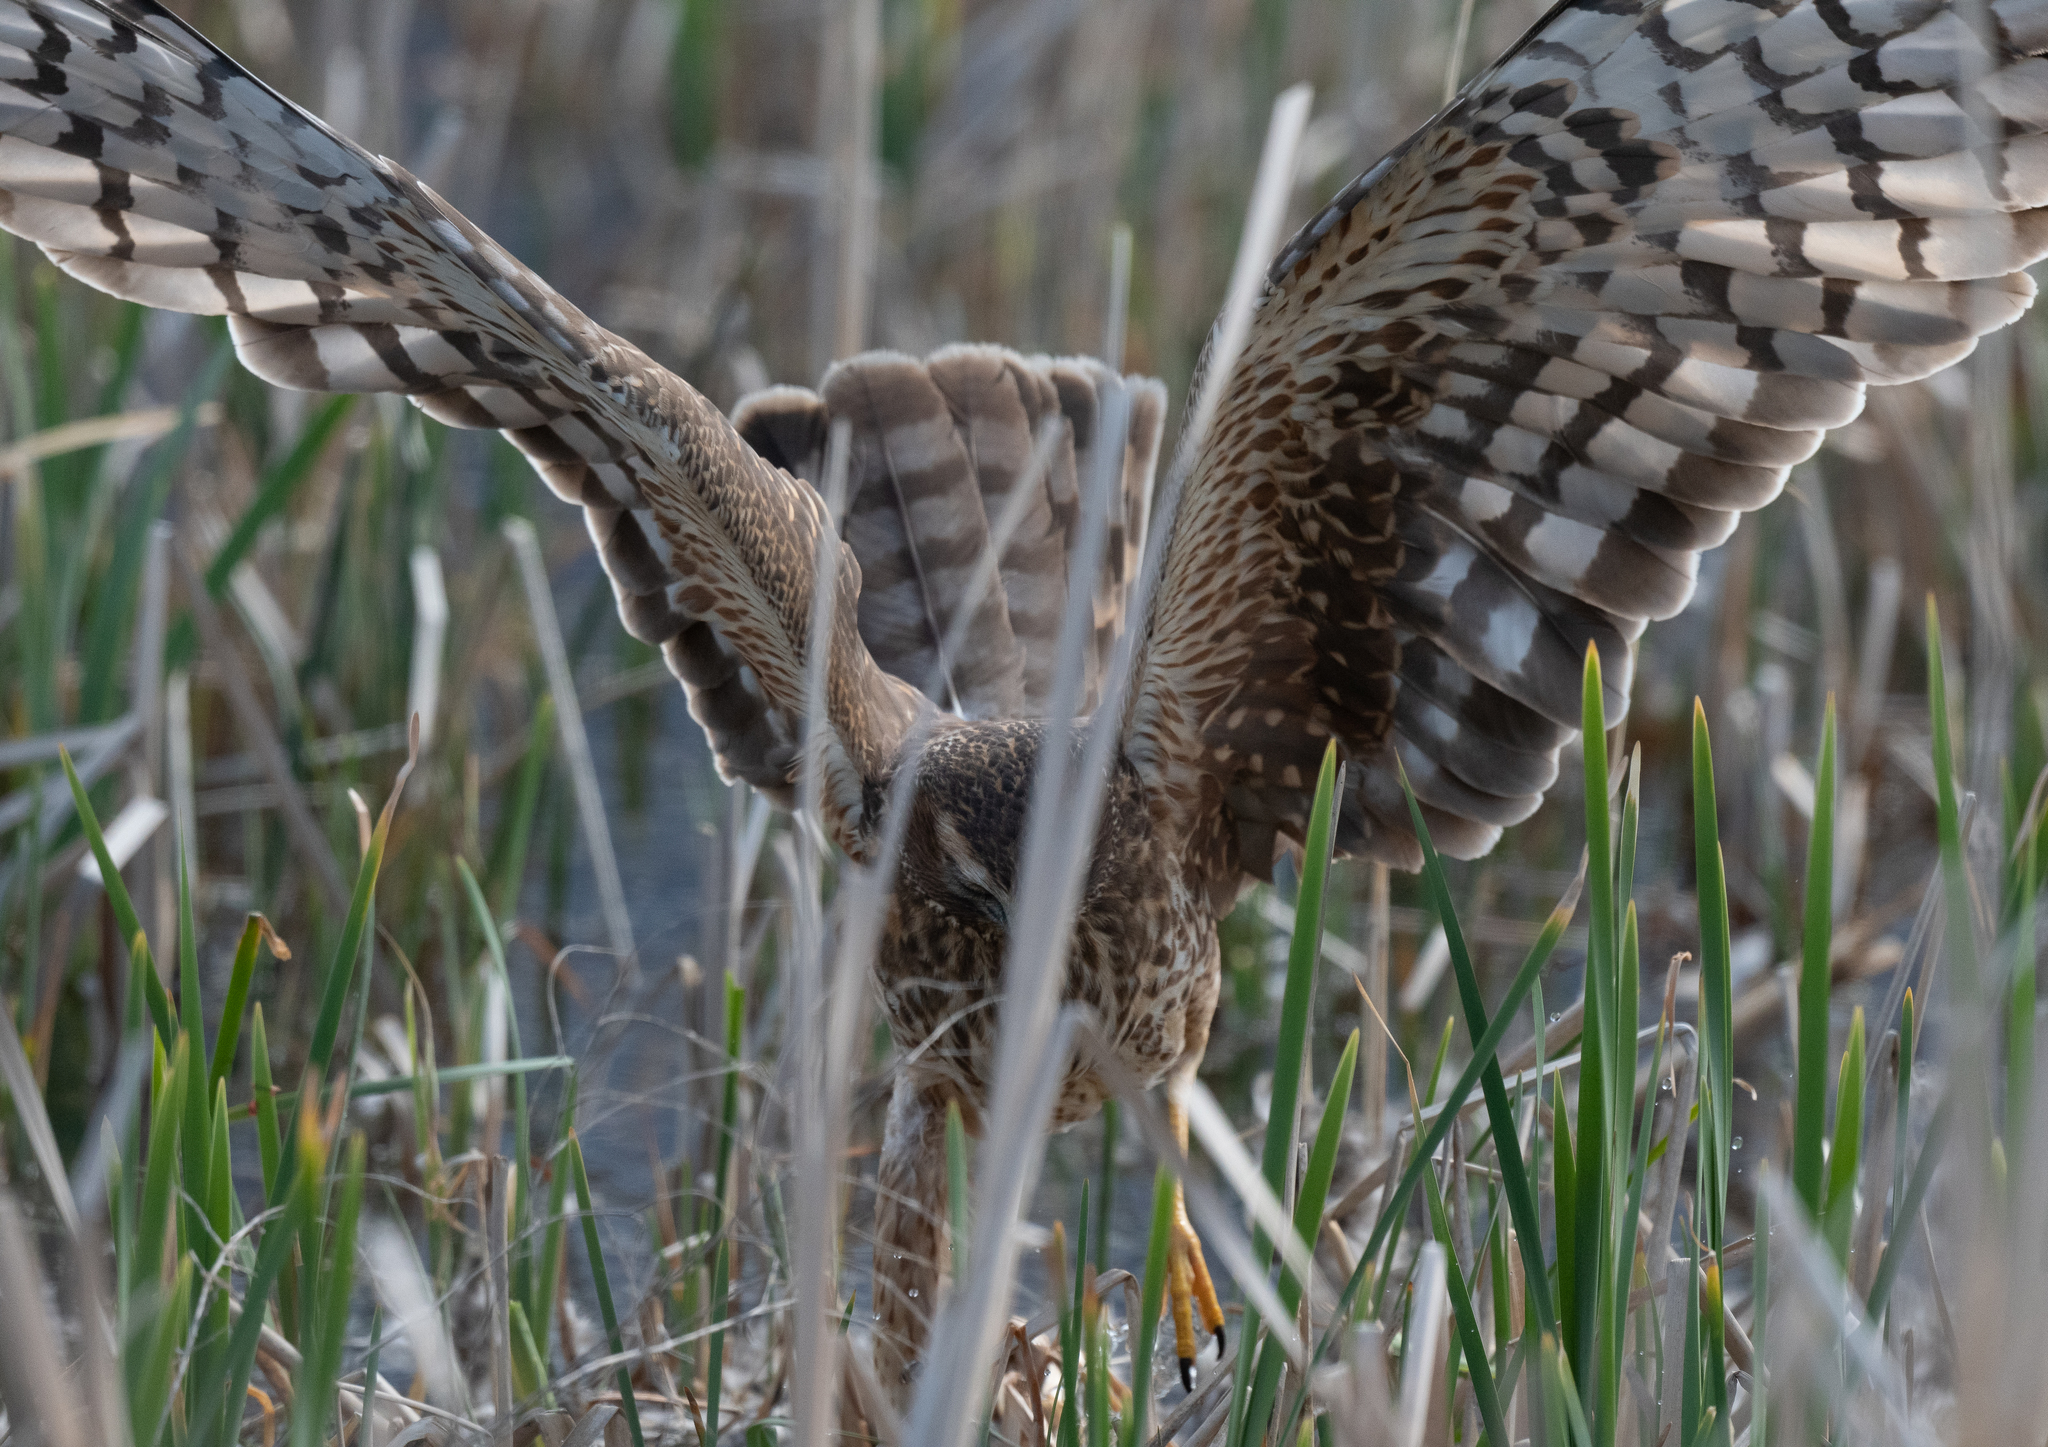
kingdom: Animalia
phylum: Chordata
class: Aves
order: Accipitriformes
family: Accipitridae
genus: Circus
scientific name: Circus cyaneus
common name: Hen harrier
